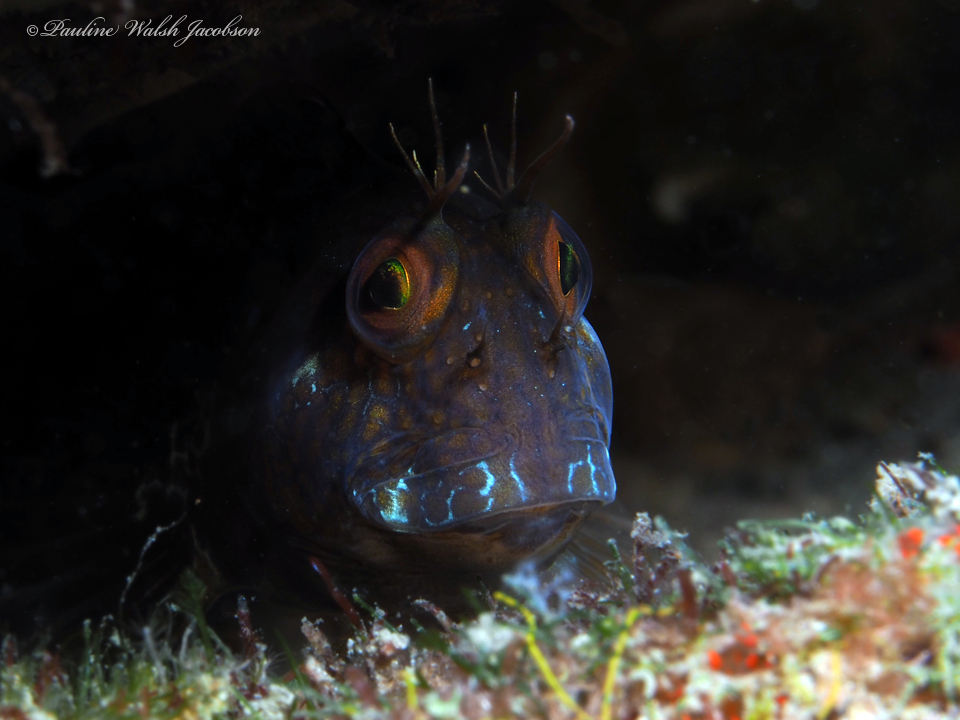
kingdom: Animalia
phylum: Chordata
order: Perciformes
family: Blenniidae
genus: Parablennius
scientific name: Parablennius marmoreus
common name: Seaweed blenny
